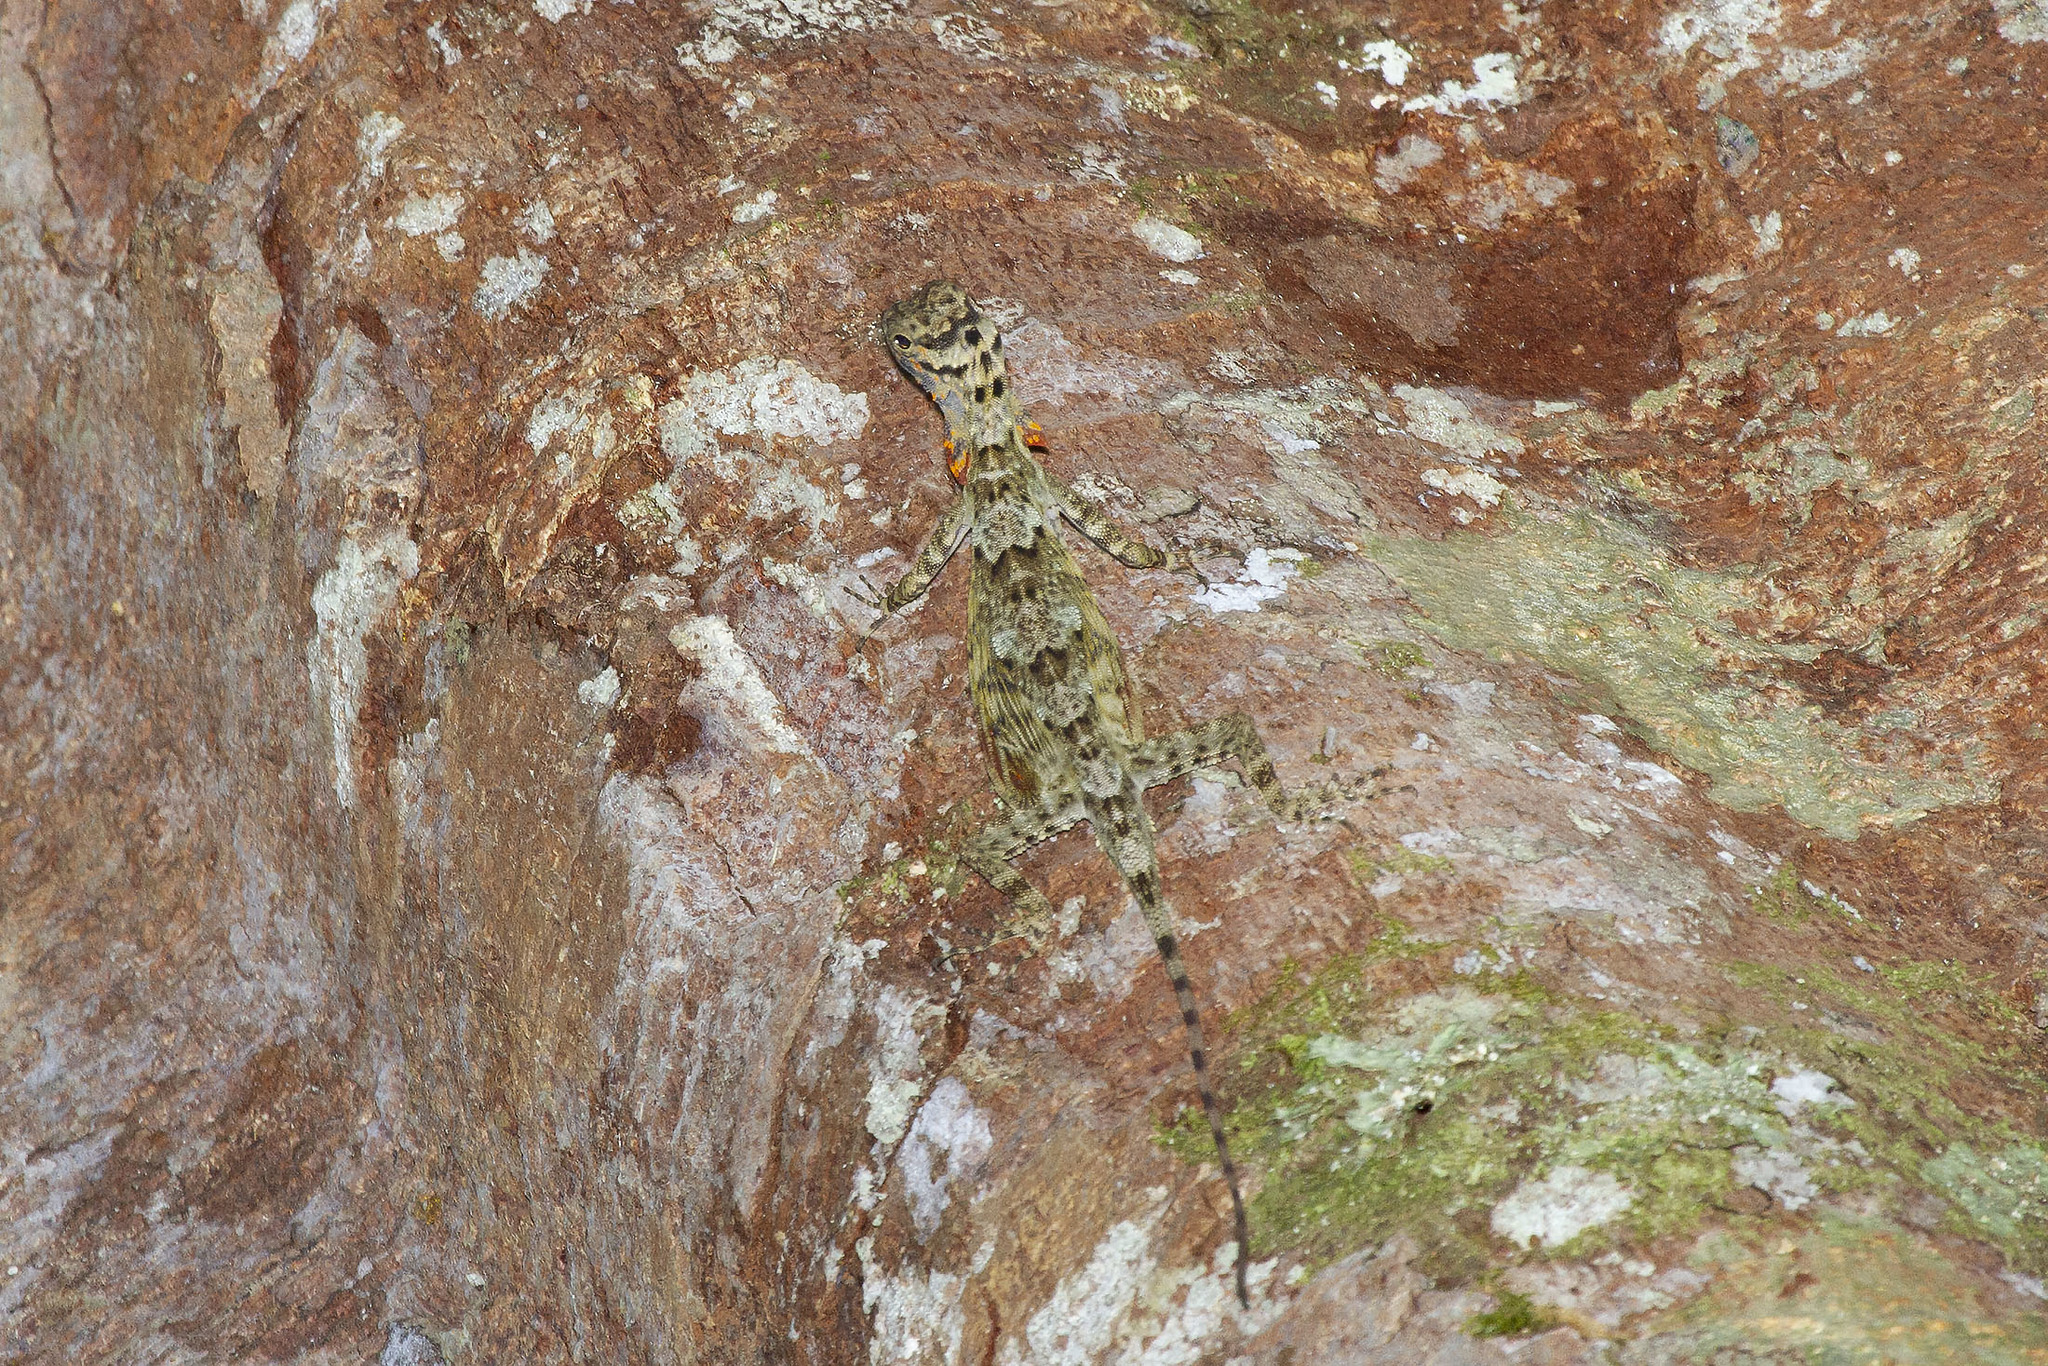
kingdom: Animalia
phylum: Chordata
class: Squamata
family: Agamidae
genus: Draco
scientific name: Draco obscurus
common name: Dusky gliding lizard
